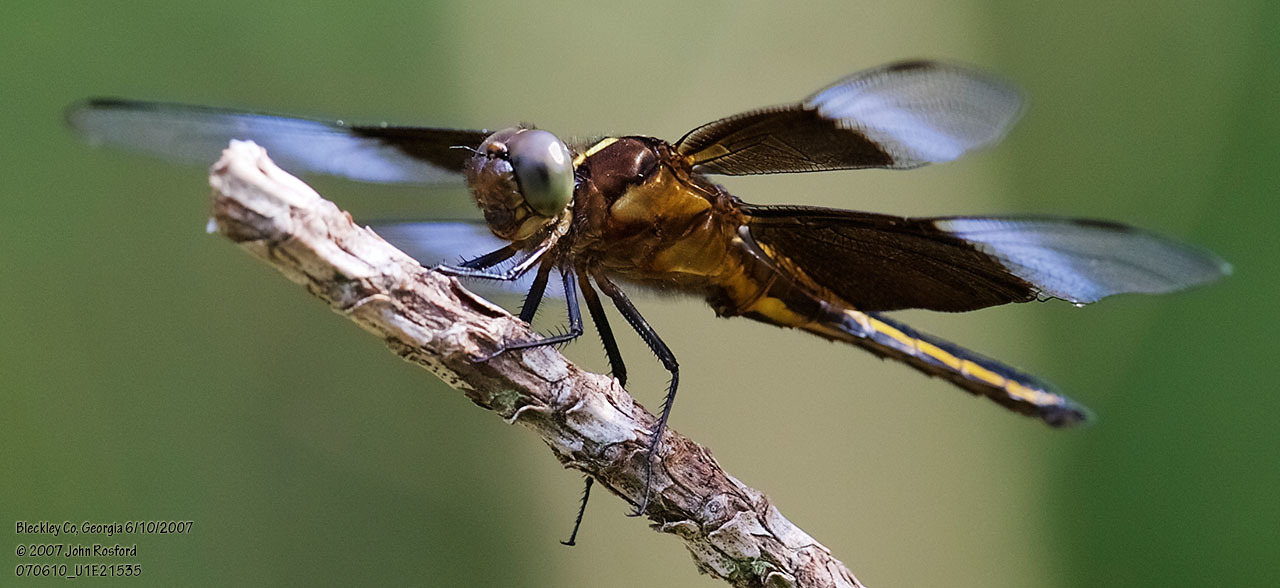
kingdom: Animalia
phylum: Arthropoda
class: Insecta
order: Odonata
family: Libellulidae
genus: Libellula
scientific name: Libellula luctuosa
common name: Widow skimmer
